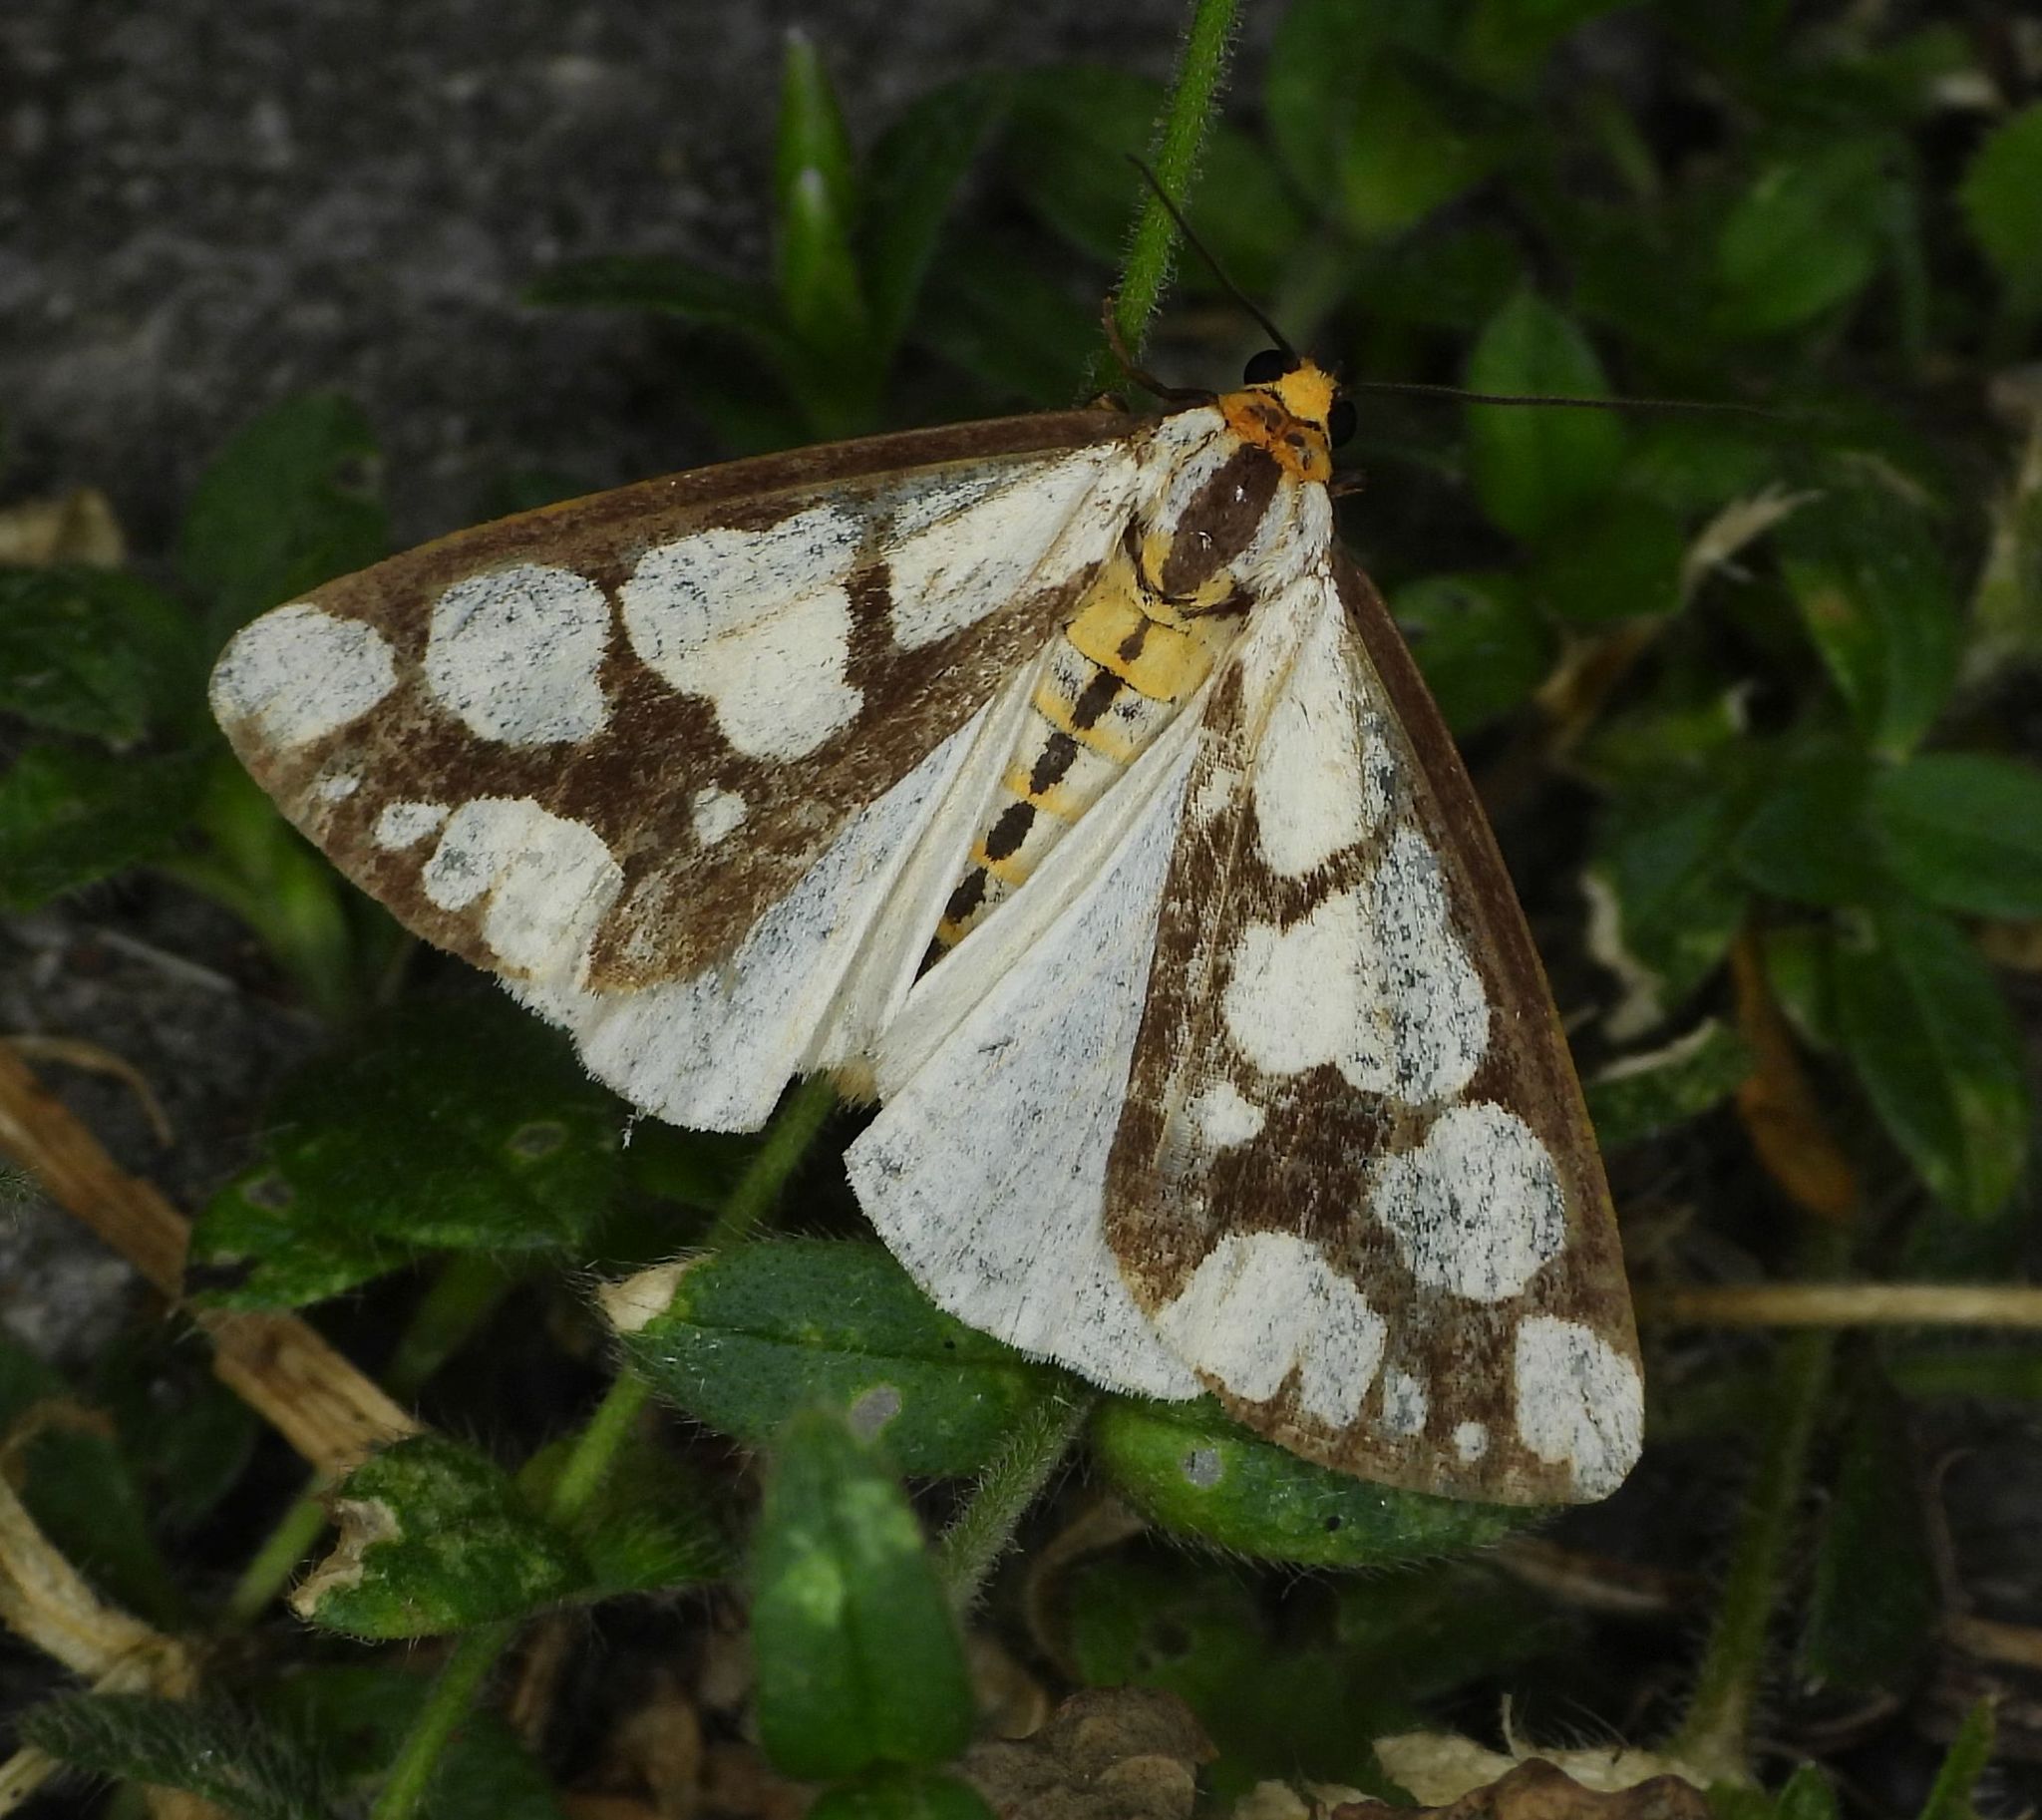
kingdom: Animalia
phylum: Arthropoda
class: Insecta
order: Lepidoptera
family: Erebidae
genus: Haploa
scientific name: Haploa lecontei
